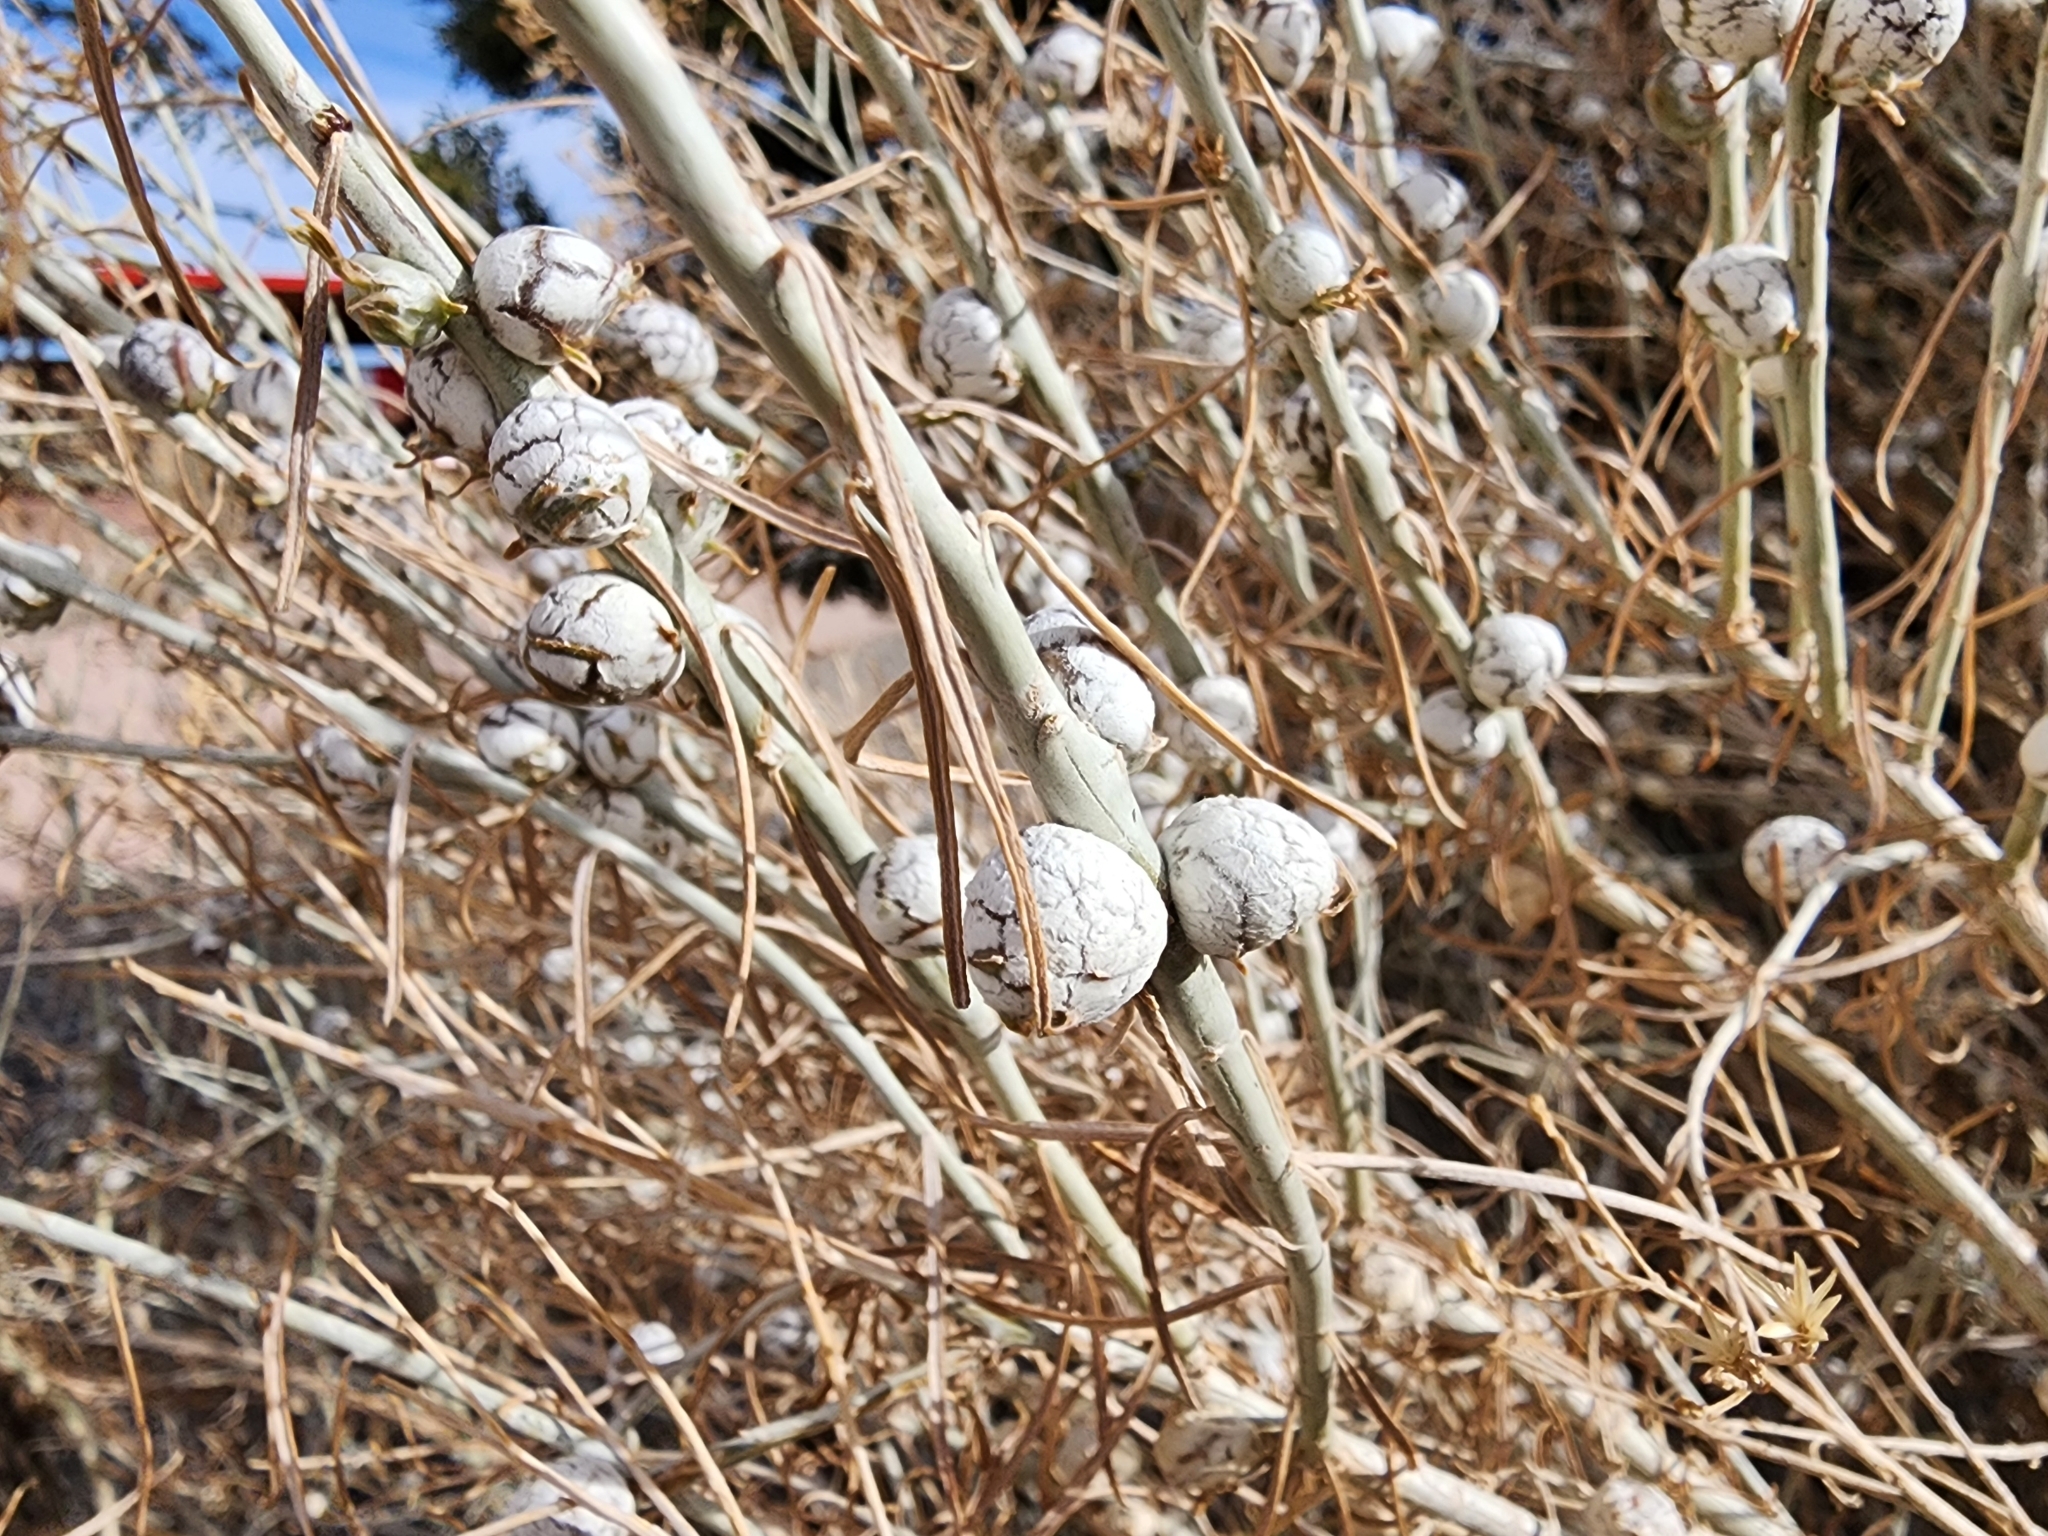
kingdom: Animalia
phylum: Arthropoda
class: Insecta
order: Diptera
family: Tephritidae
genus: Aciurina
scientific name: Aciurina trixa
